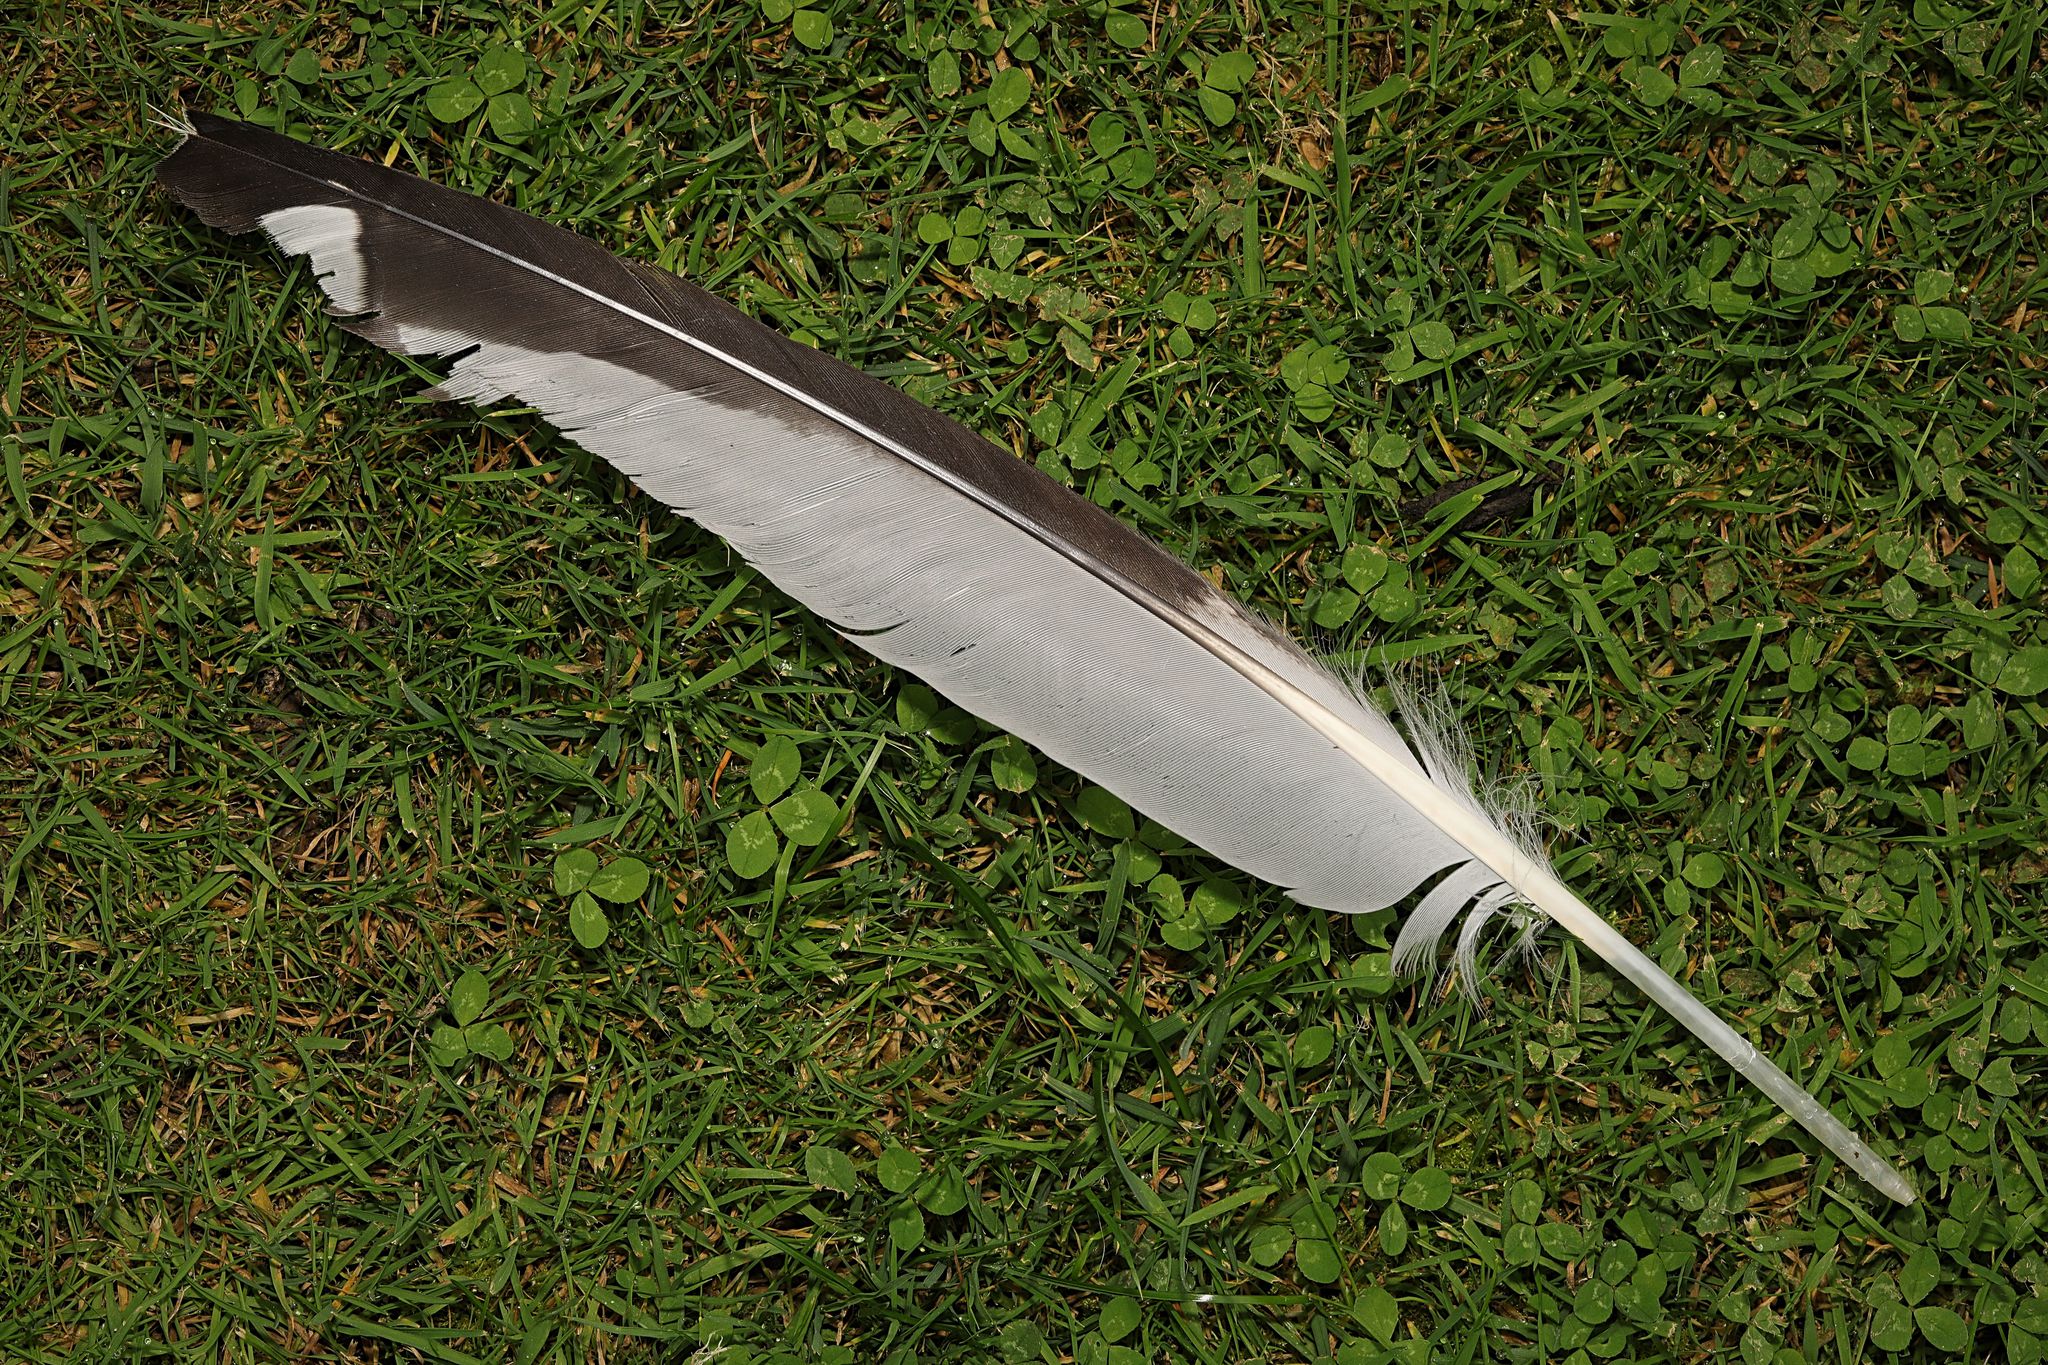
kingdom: Animalia
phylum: Chordata
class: Aves
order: Charadriiformes
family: Laridae
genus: Larus
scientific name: Larus argentatus
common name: Herring gull
